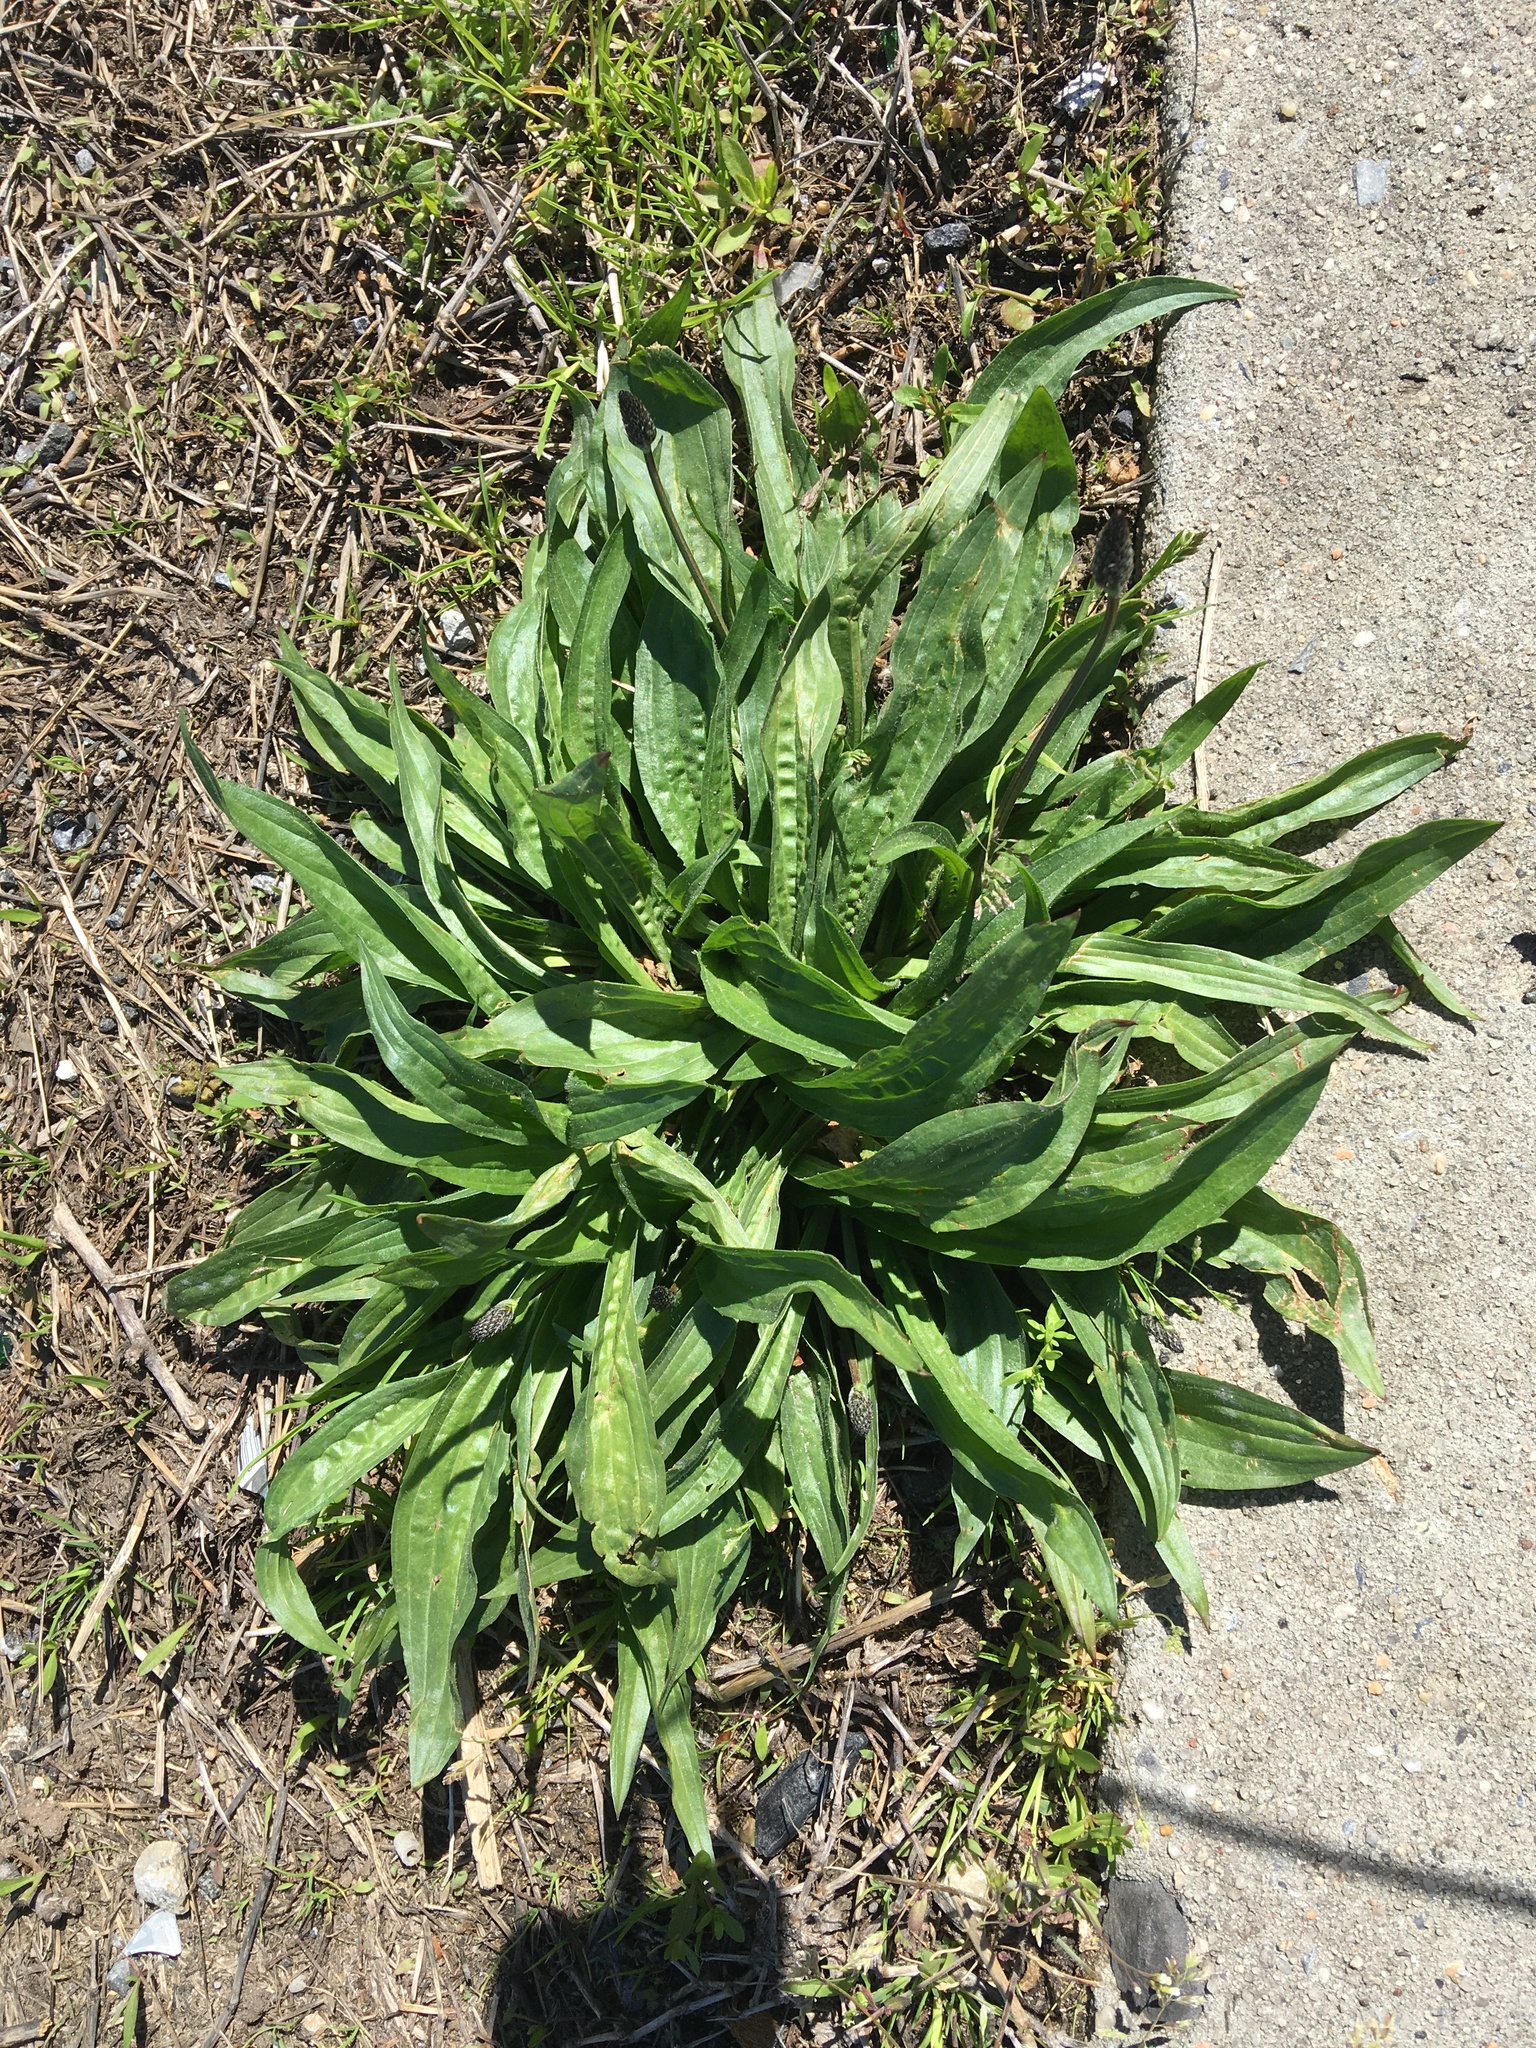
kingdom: Plantae
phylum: Tracheophyta
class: Magnoliopsida
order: Lamiales
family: Plantaginaceae
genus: Plantago
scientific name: Plantago lanceolata
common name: Ribwort plantain
